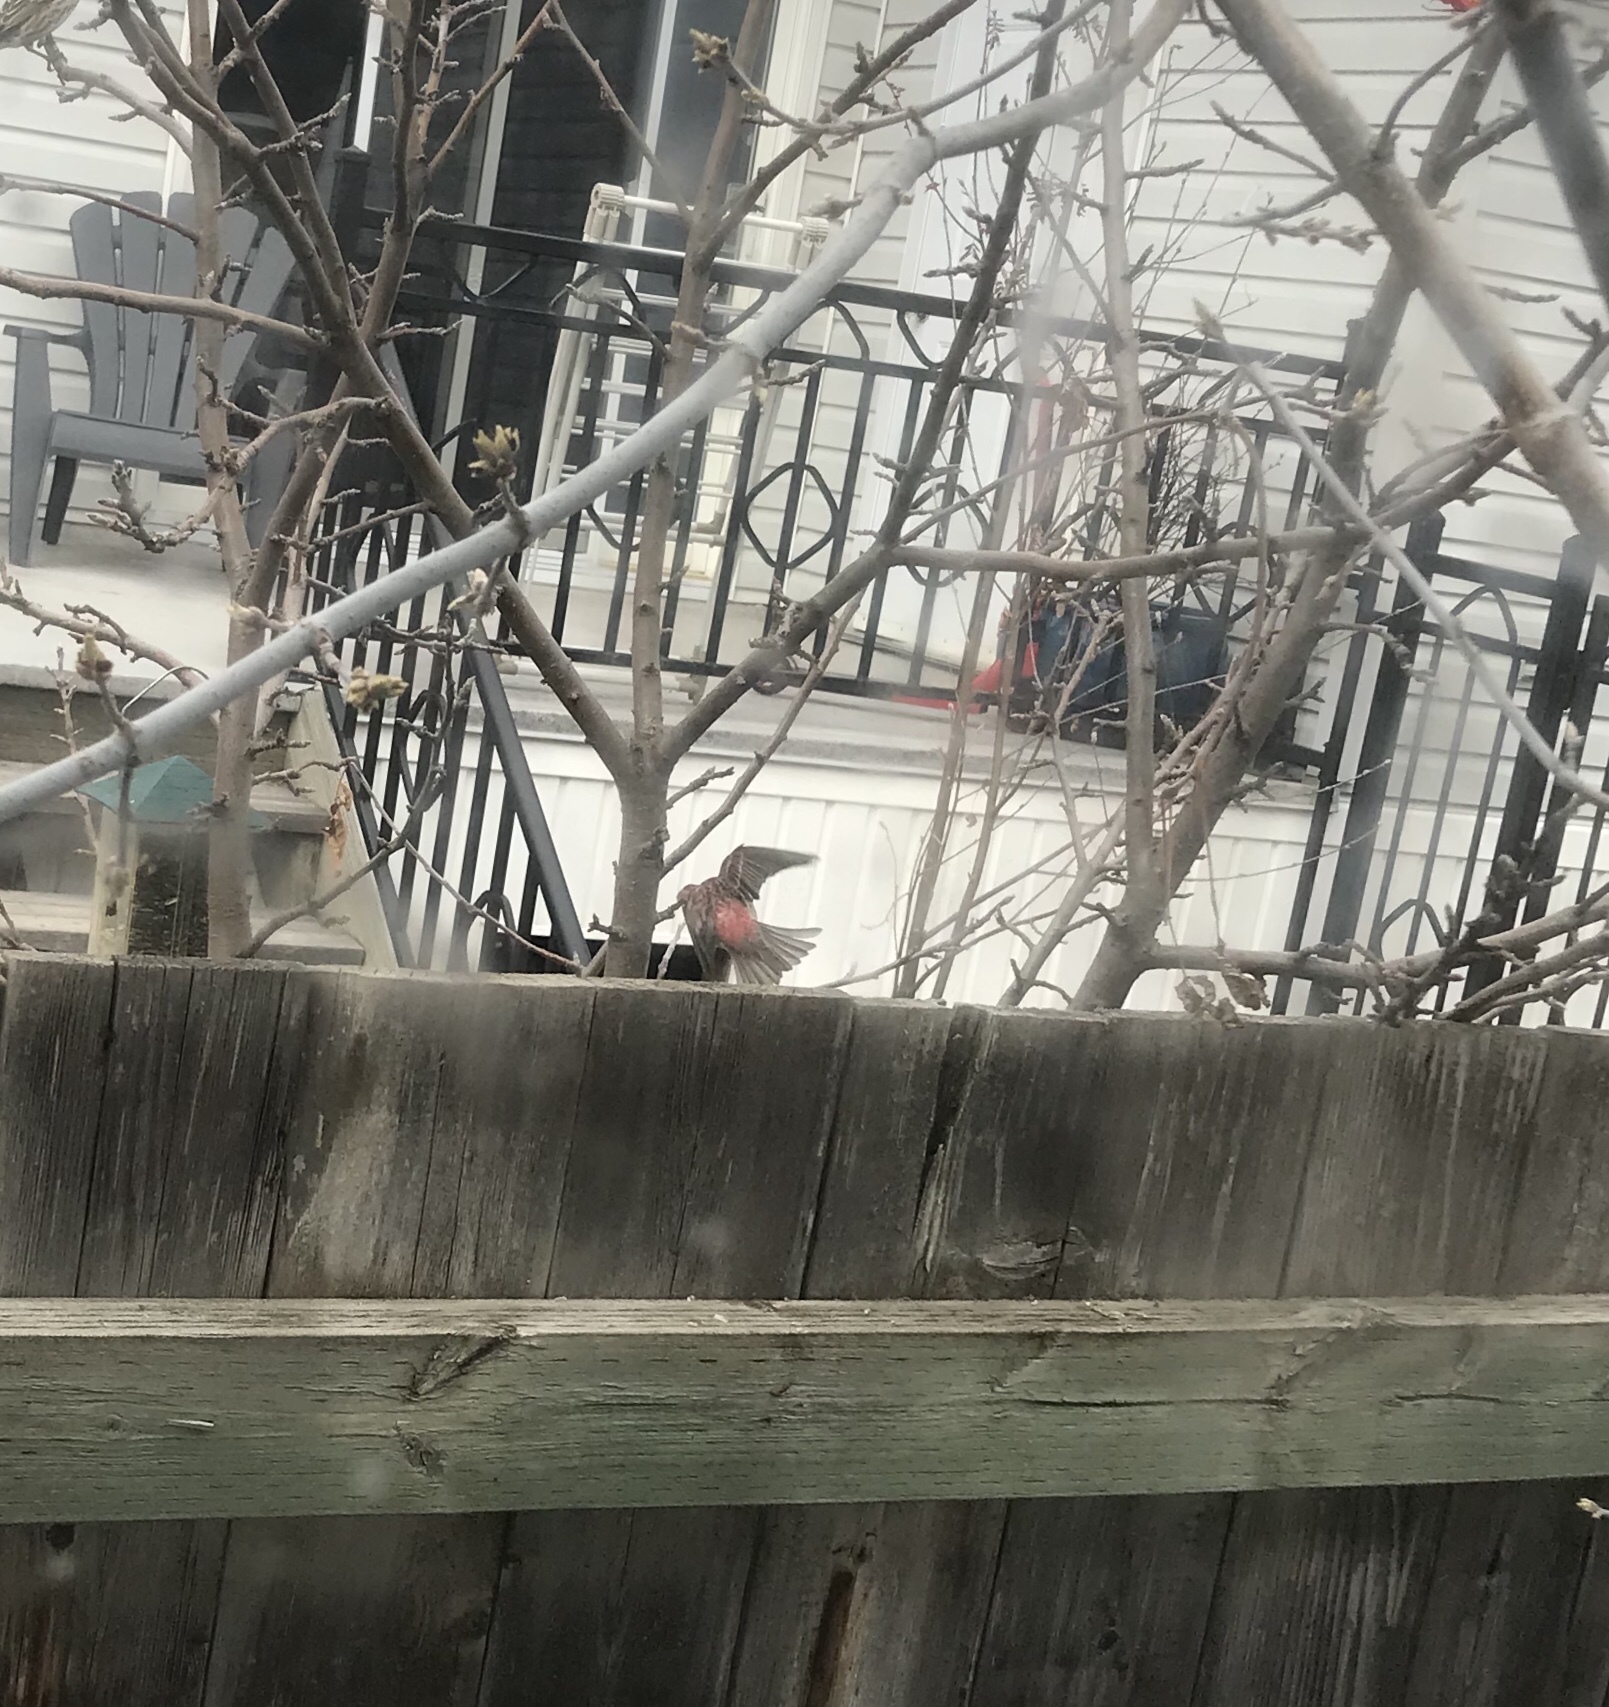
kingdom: Animalia
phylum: Chordata
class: Aves
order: Passeriformes
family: Fringillidae
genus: Haemorhous
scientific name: Haemorhous purpureus
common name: Purple finch
